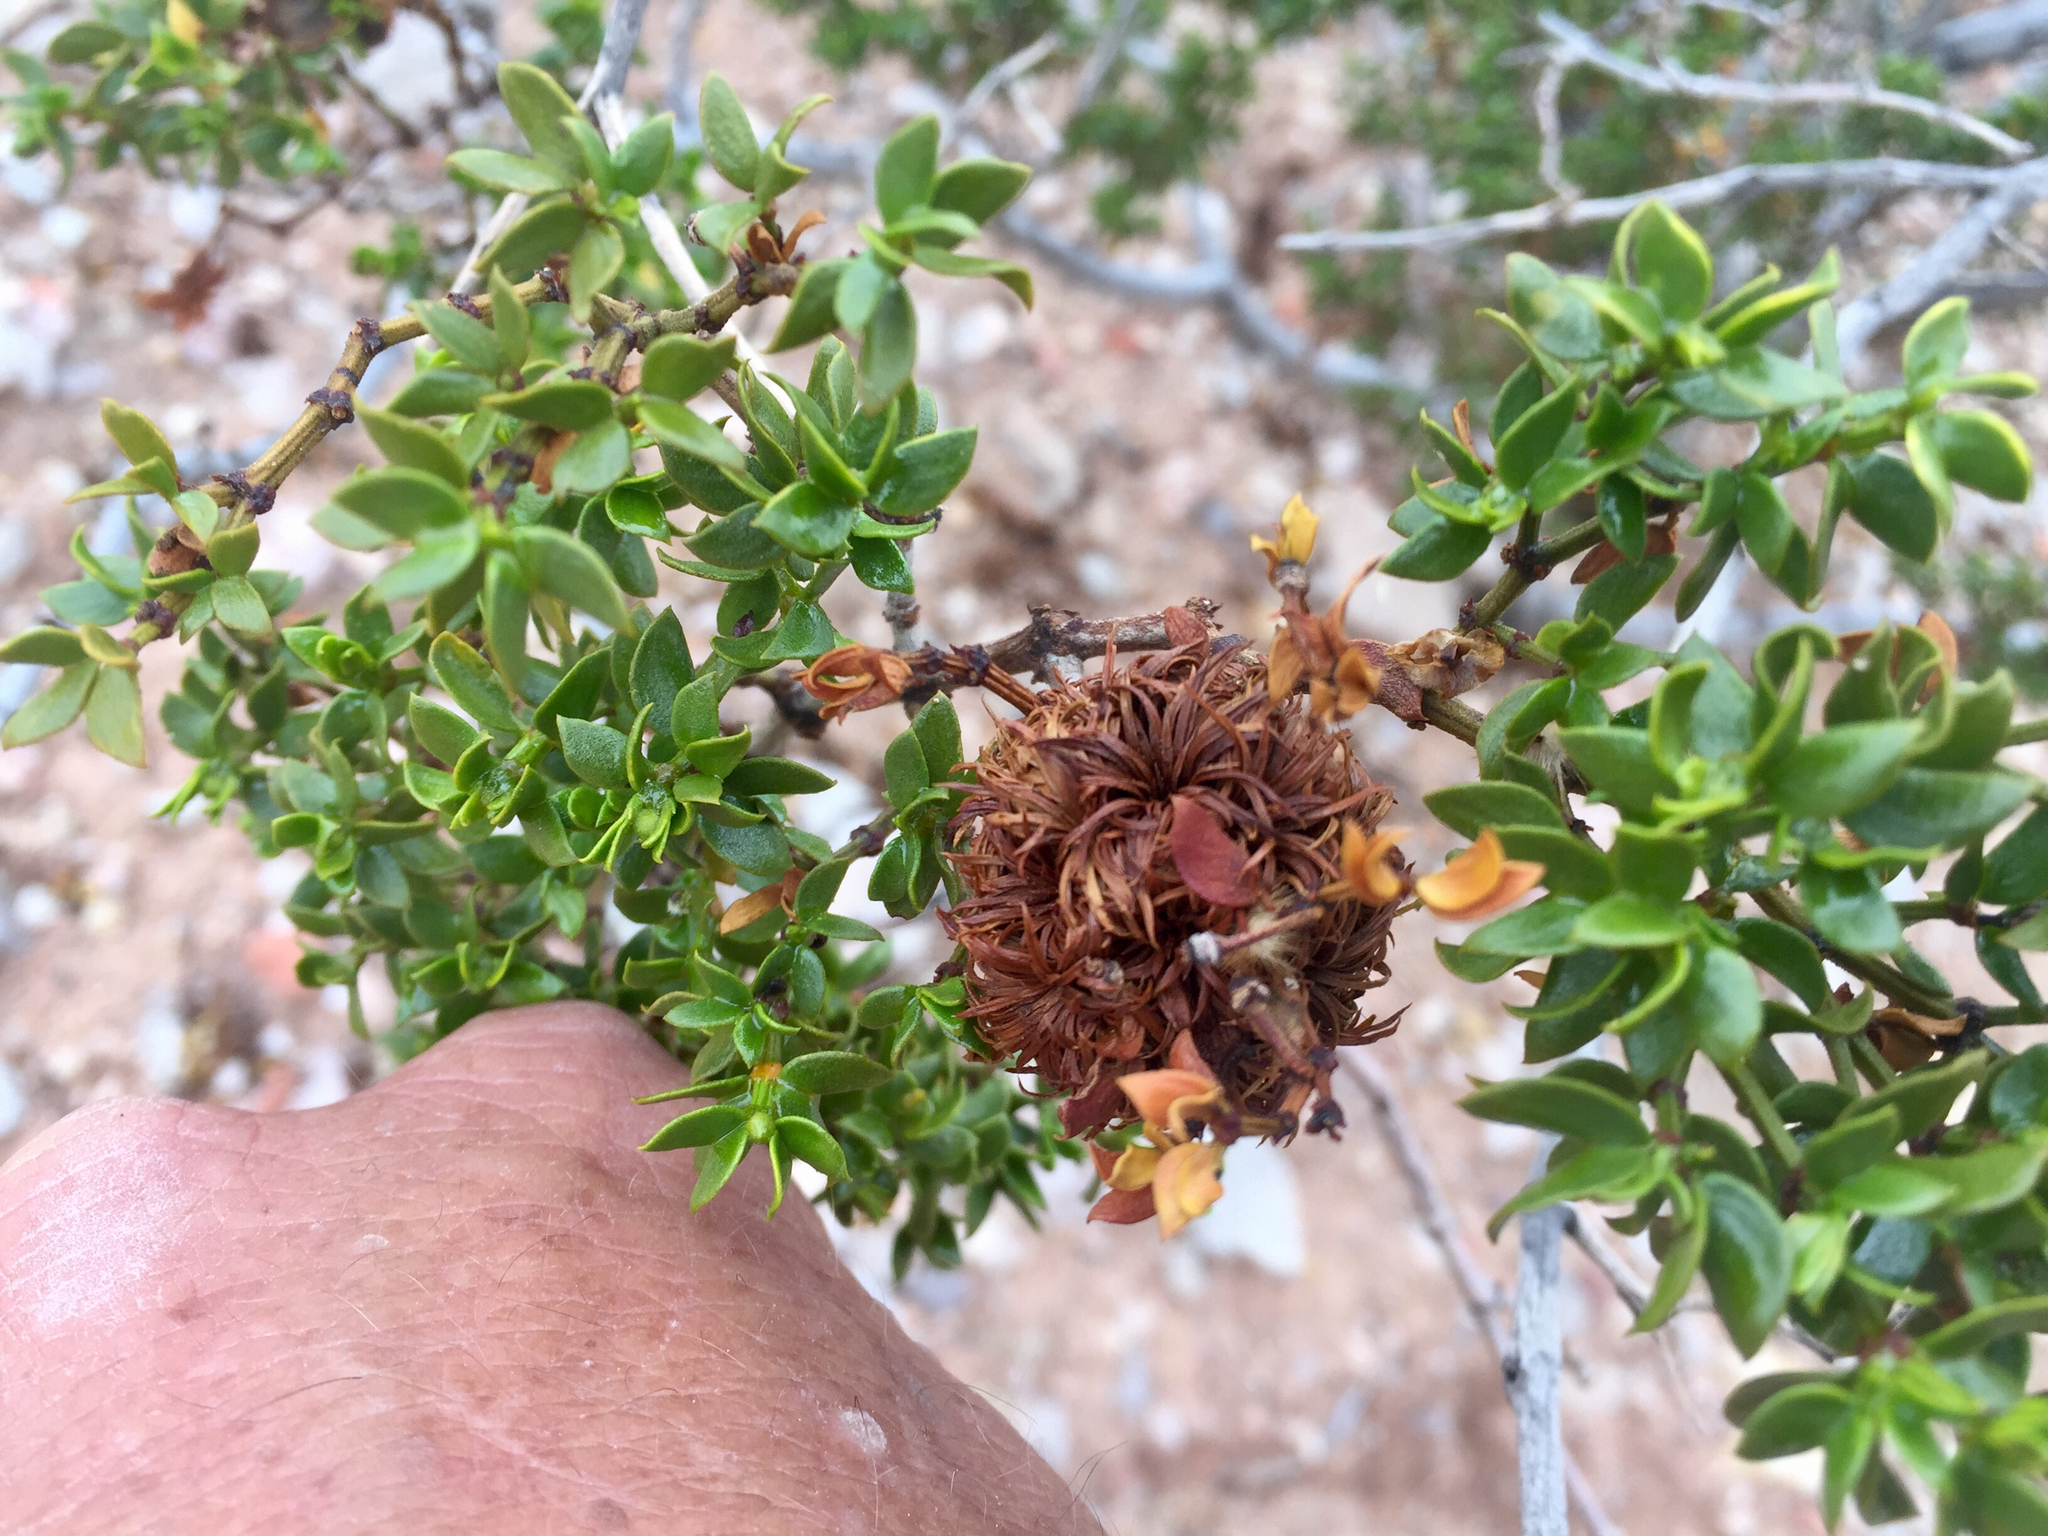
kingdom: Animalia
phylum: Arthropoda
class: Insecta
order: Diptera
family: Cecidomyiidae
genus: Asphondylia
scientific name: Asphondylia auripila
